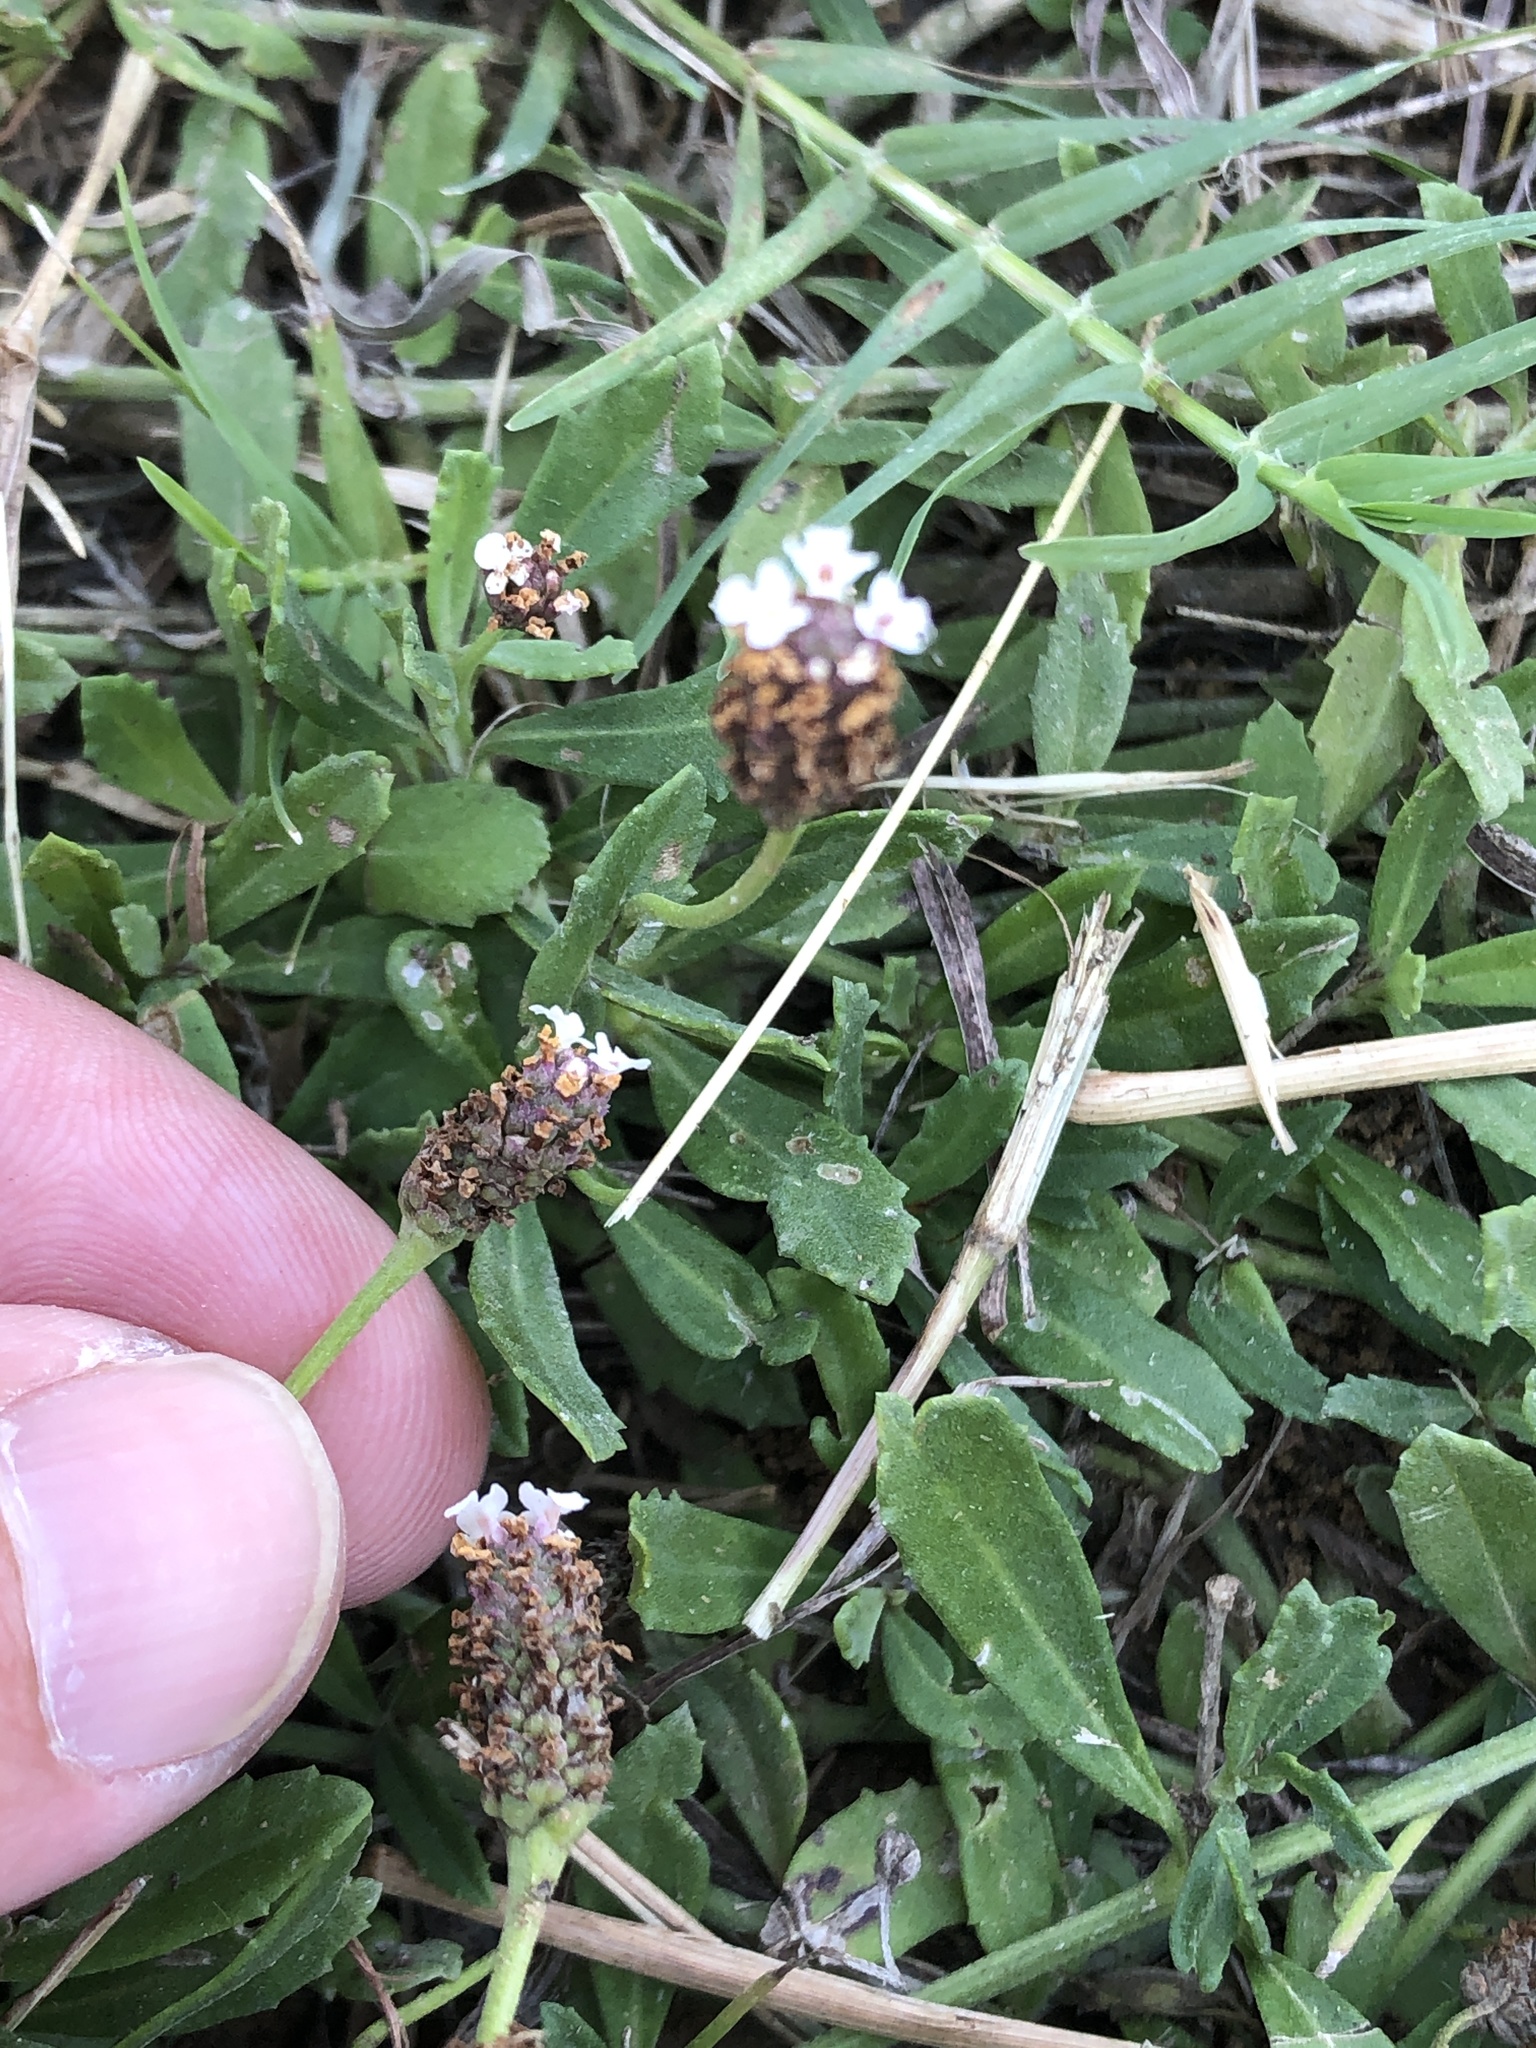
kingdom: Plantae
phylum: Tracheophyta
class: Magnoliopsida
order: Lamiales
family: Verbenaceae
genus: Phyla
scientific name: Phyla nodiflora
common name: Frogfruit
